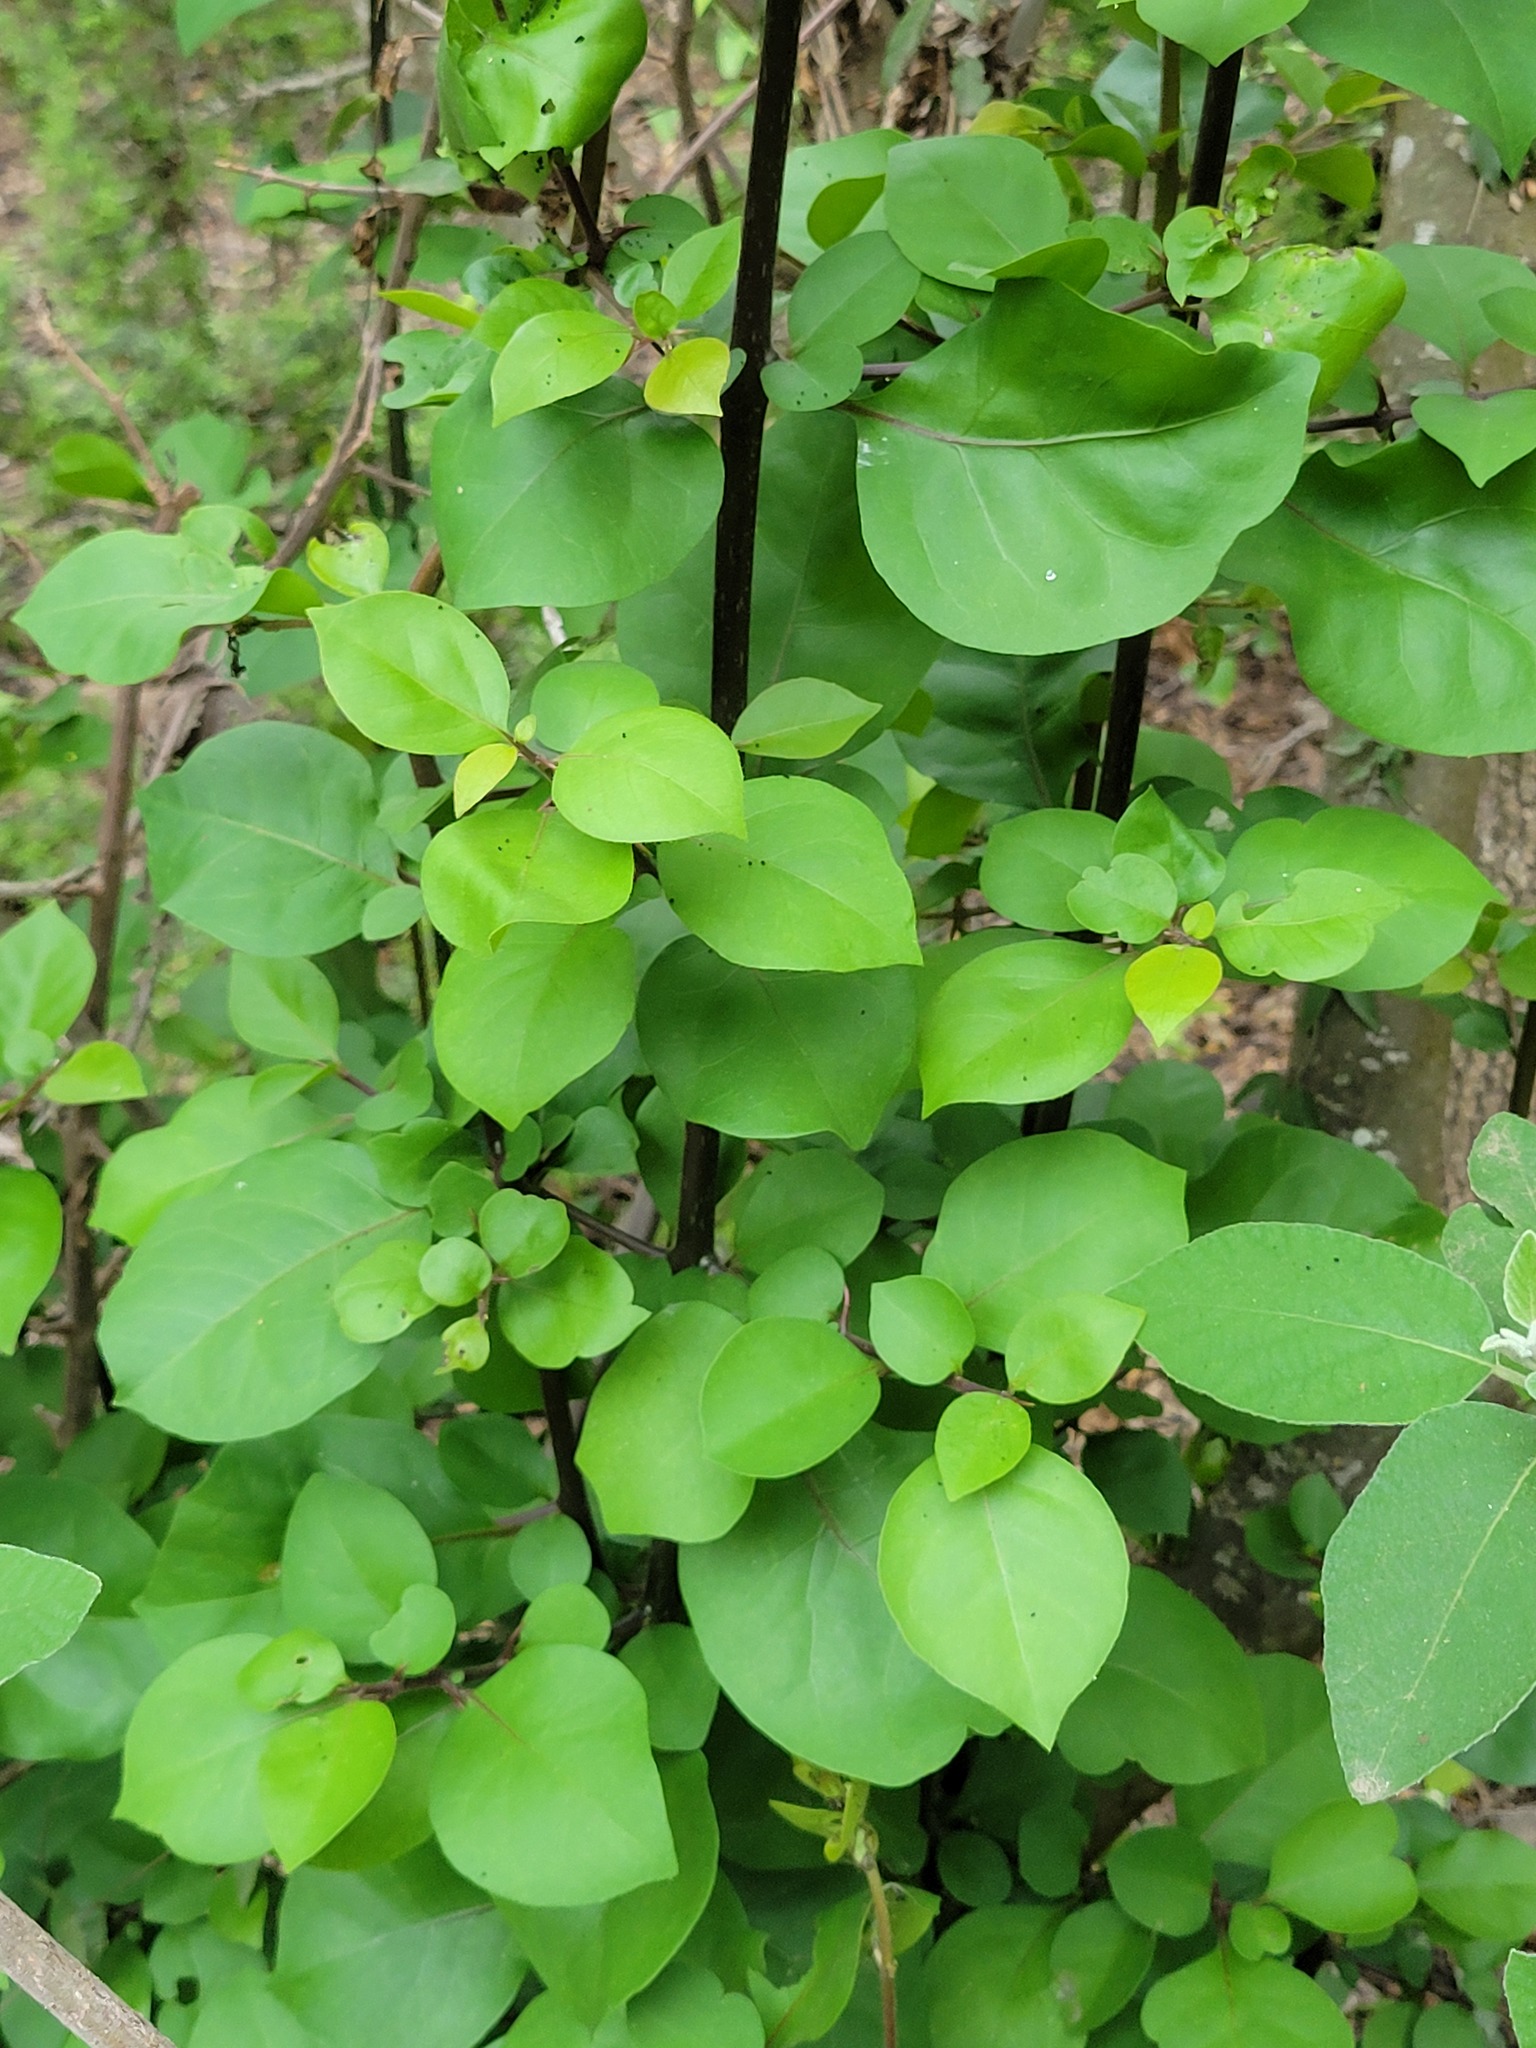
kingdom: Plantae
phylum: Tracheophyta
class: Magnoliopsida
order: Caryophyllales
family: Nyctaginaceae
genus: Pisonia
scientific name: Pisonia aculeata
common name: Cockspur vine
